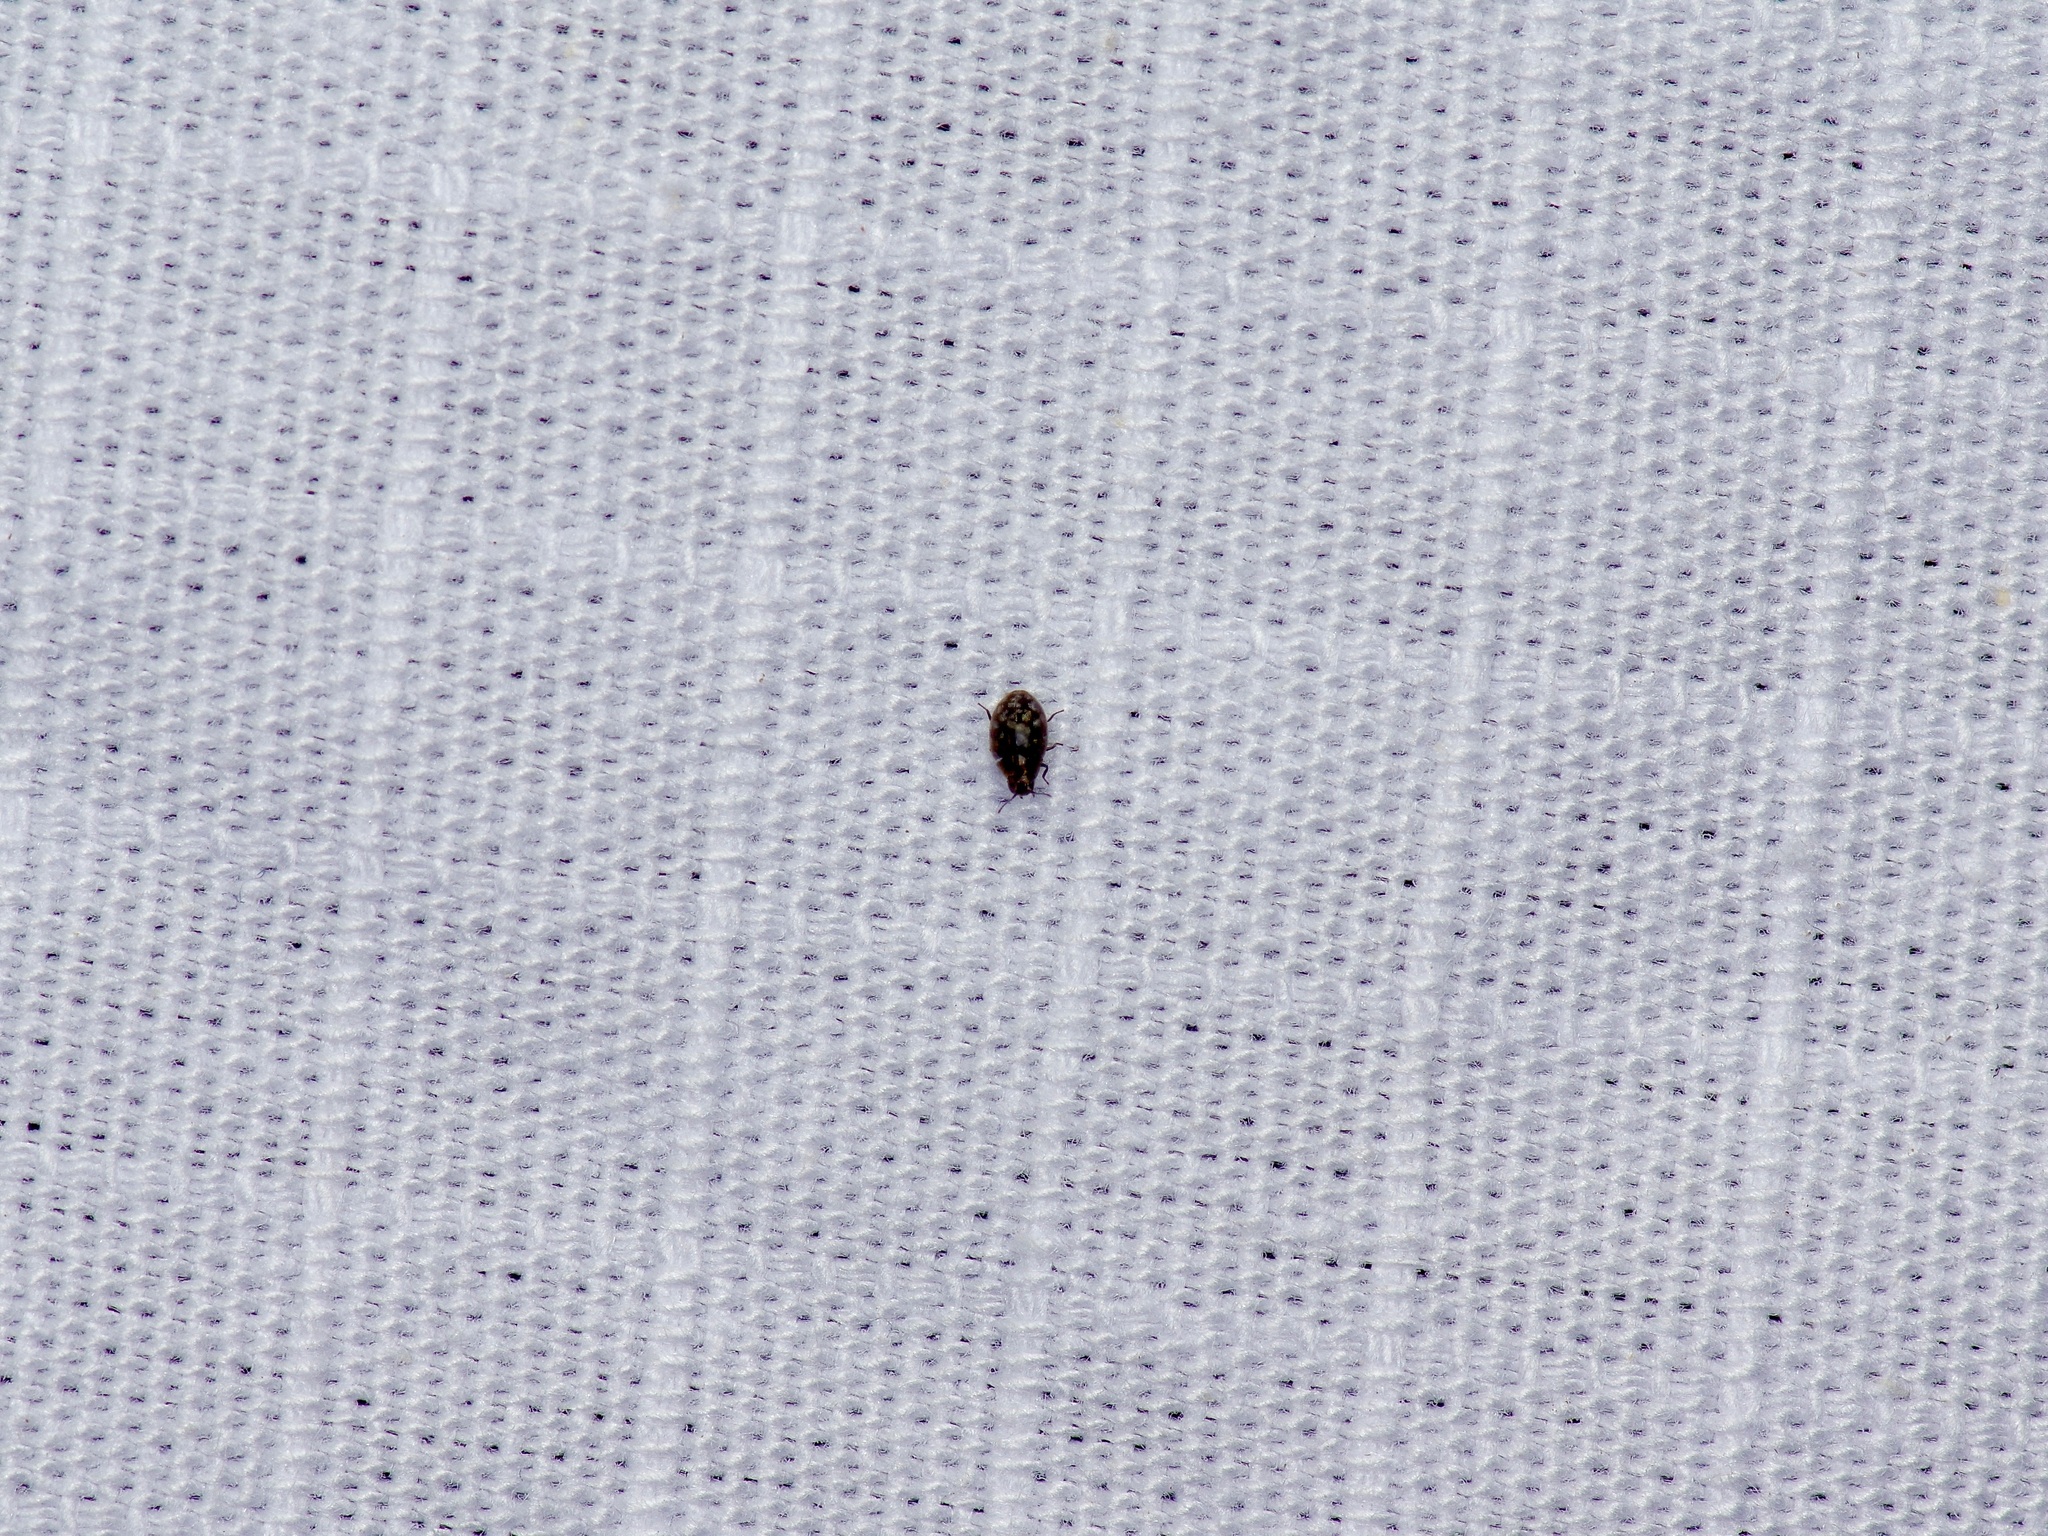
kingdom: Animalia
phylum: Arthropoda
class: Insecta
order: Coleoptera
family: Limnichidae
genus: Eulimnichus
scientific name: Eulimnichus ater
